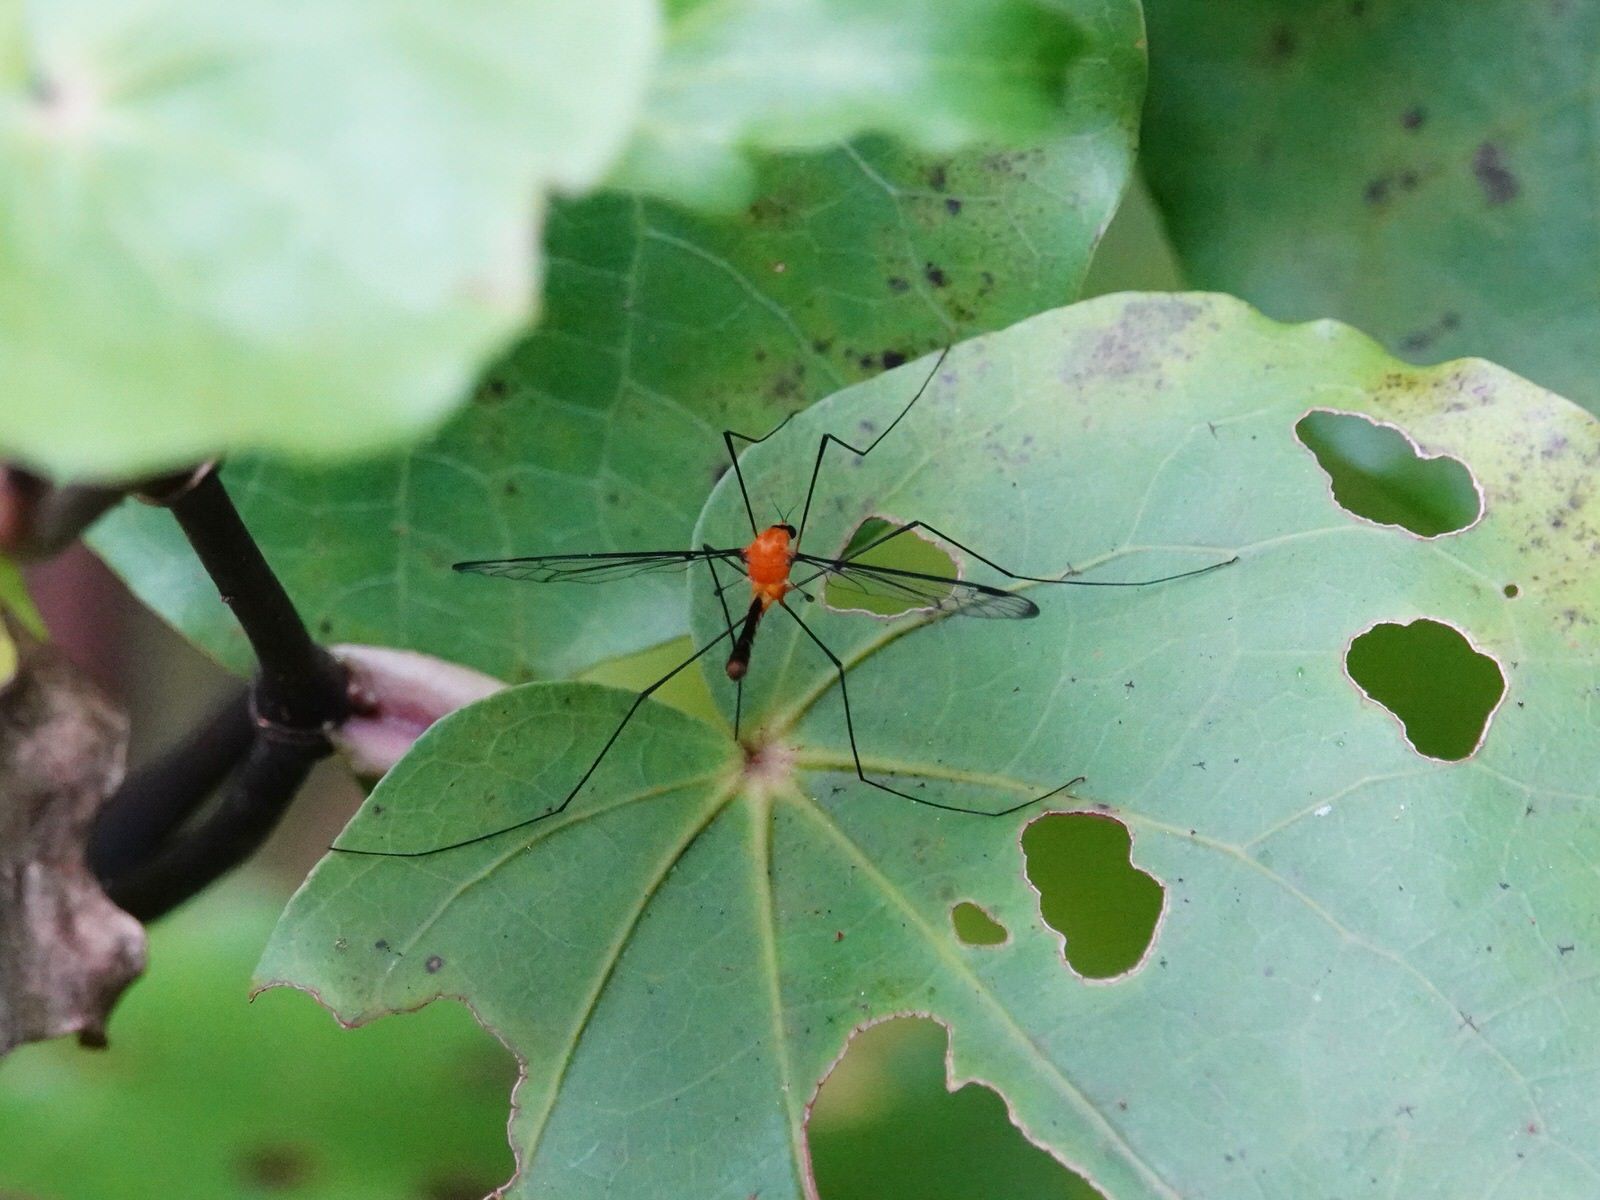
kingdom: Animalia
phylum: Arthropoda
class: Insecta
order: Diptera
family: Tipulidae
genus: Aurotipula
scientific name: Aurotipula
